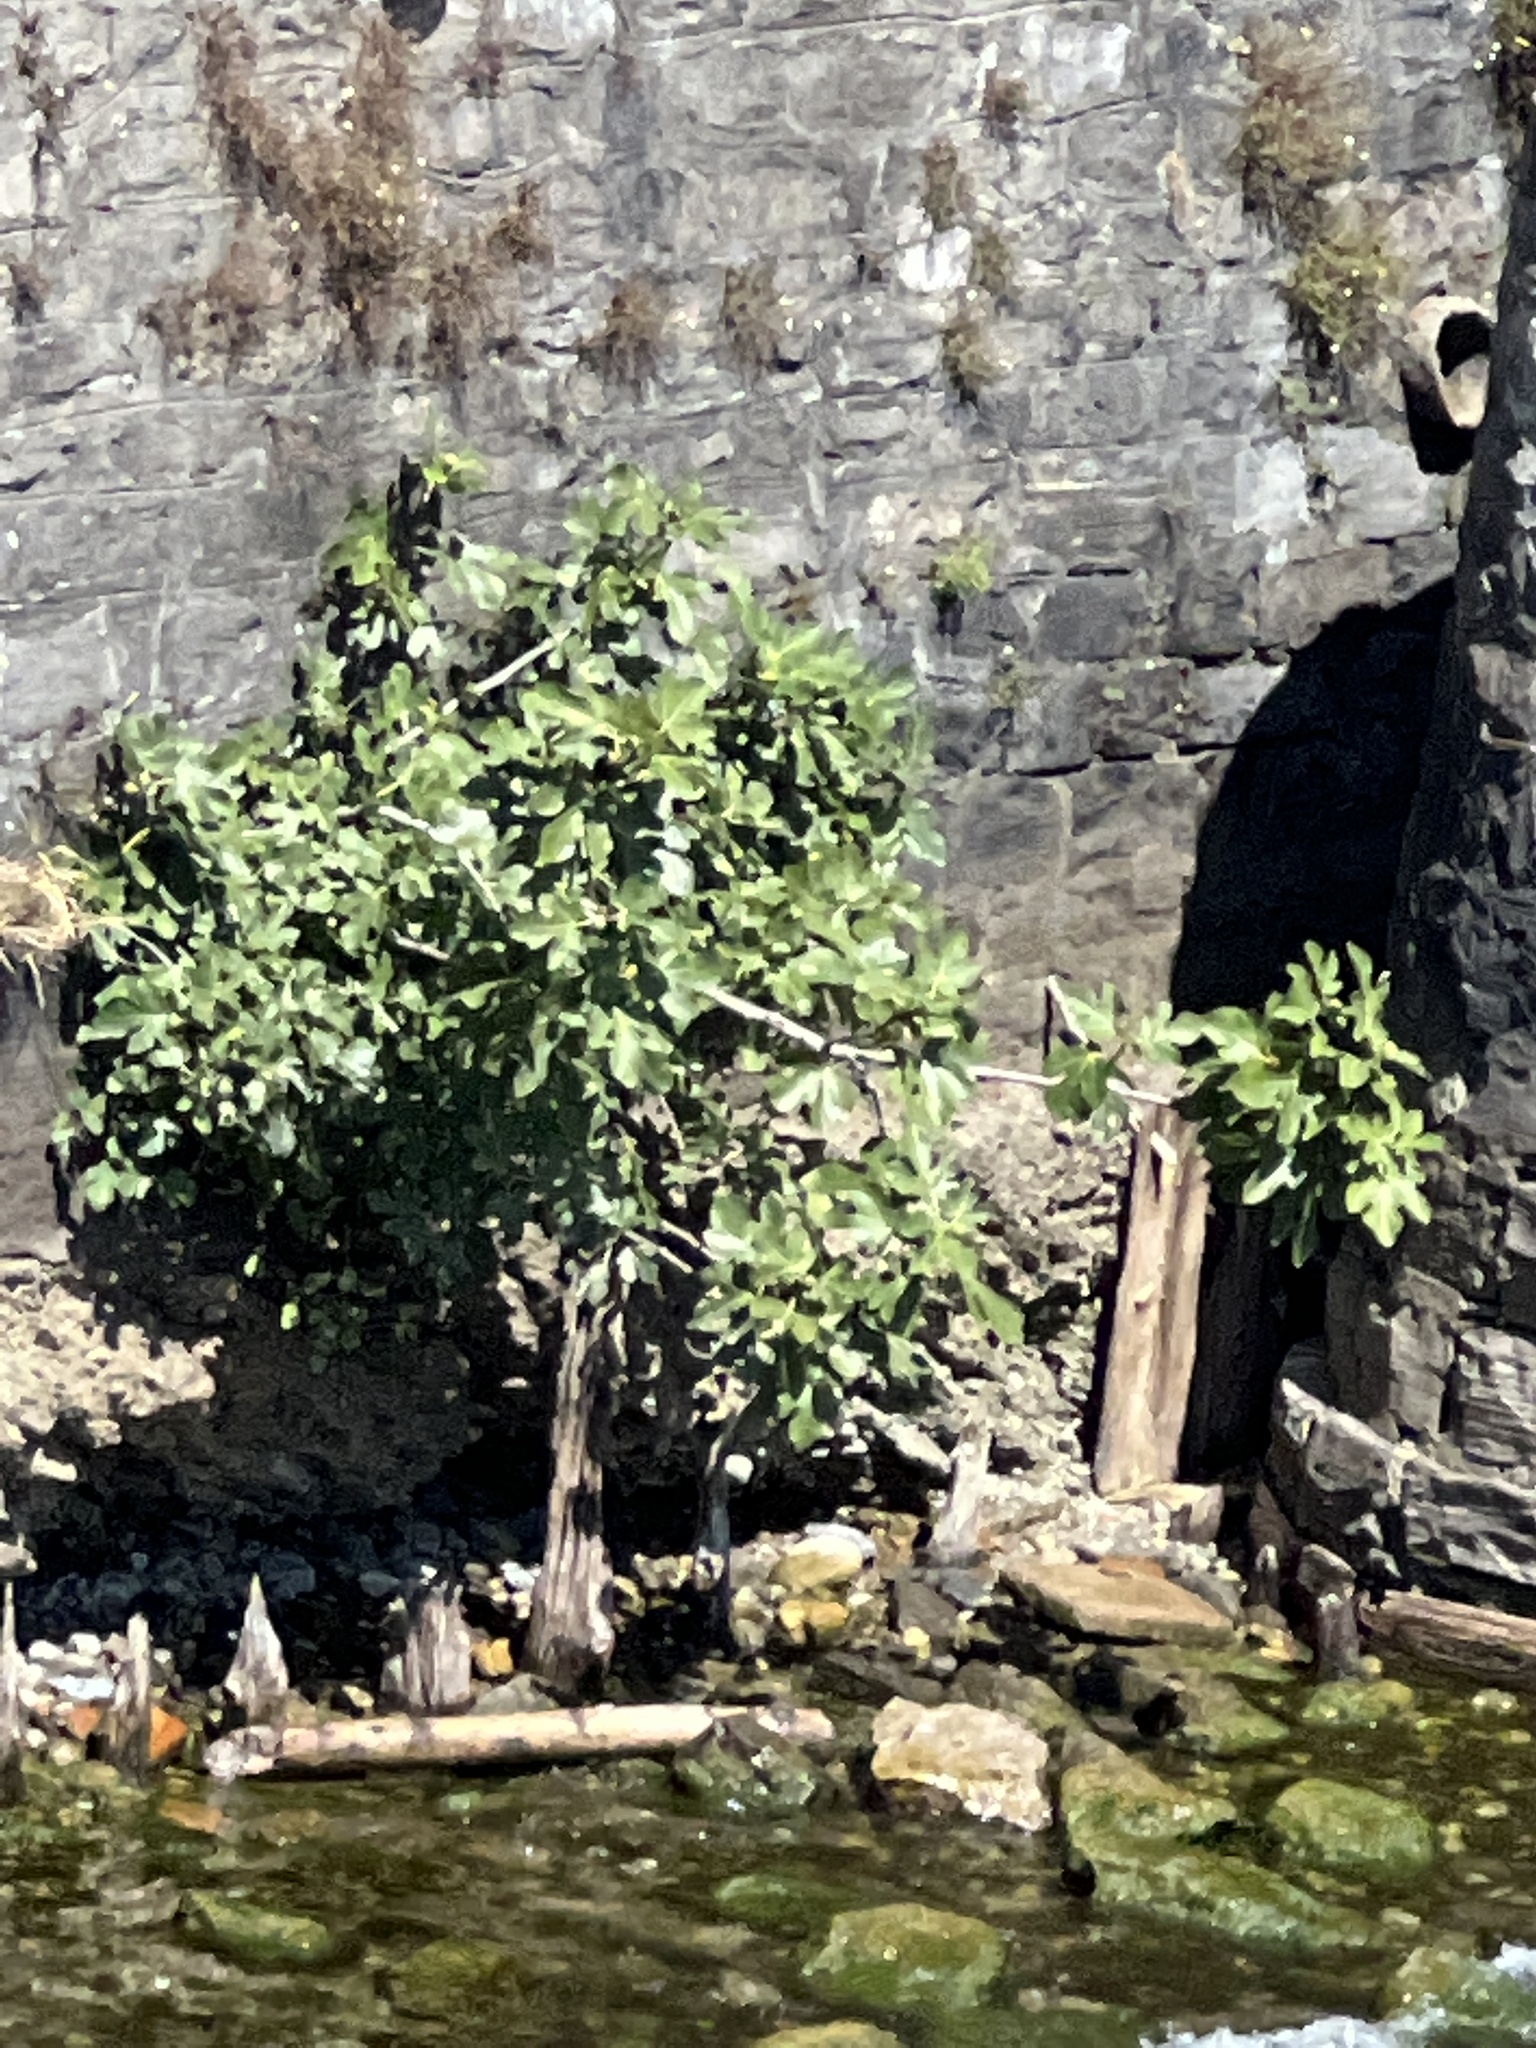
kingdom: Plantae
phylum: Tracheophyta
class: Magnoliopsida
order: Rosales
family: Moraceae
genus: Ficus
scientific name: Ficus carica
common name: Fig
